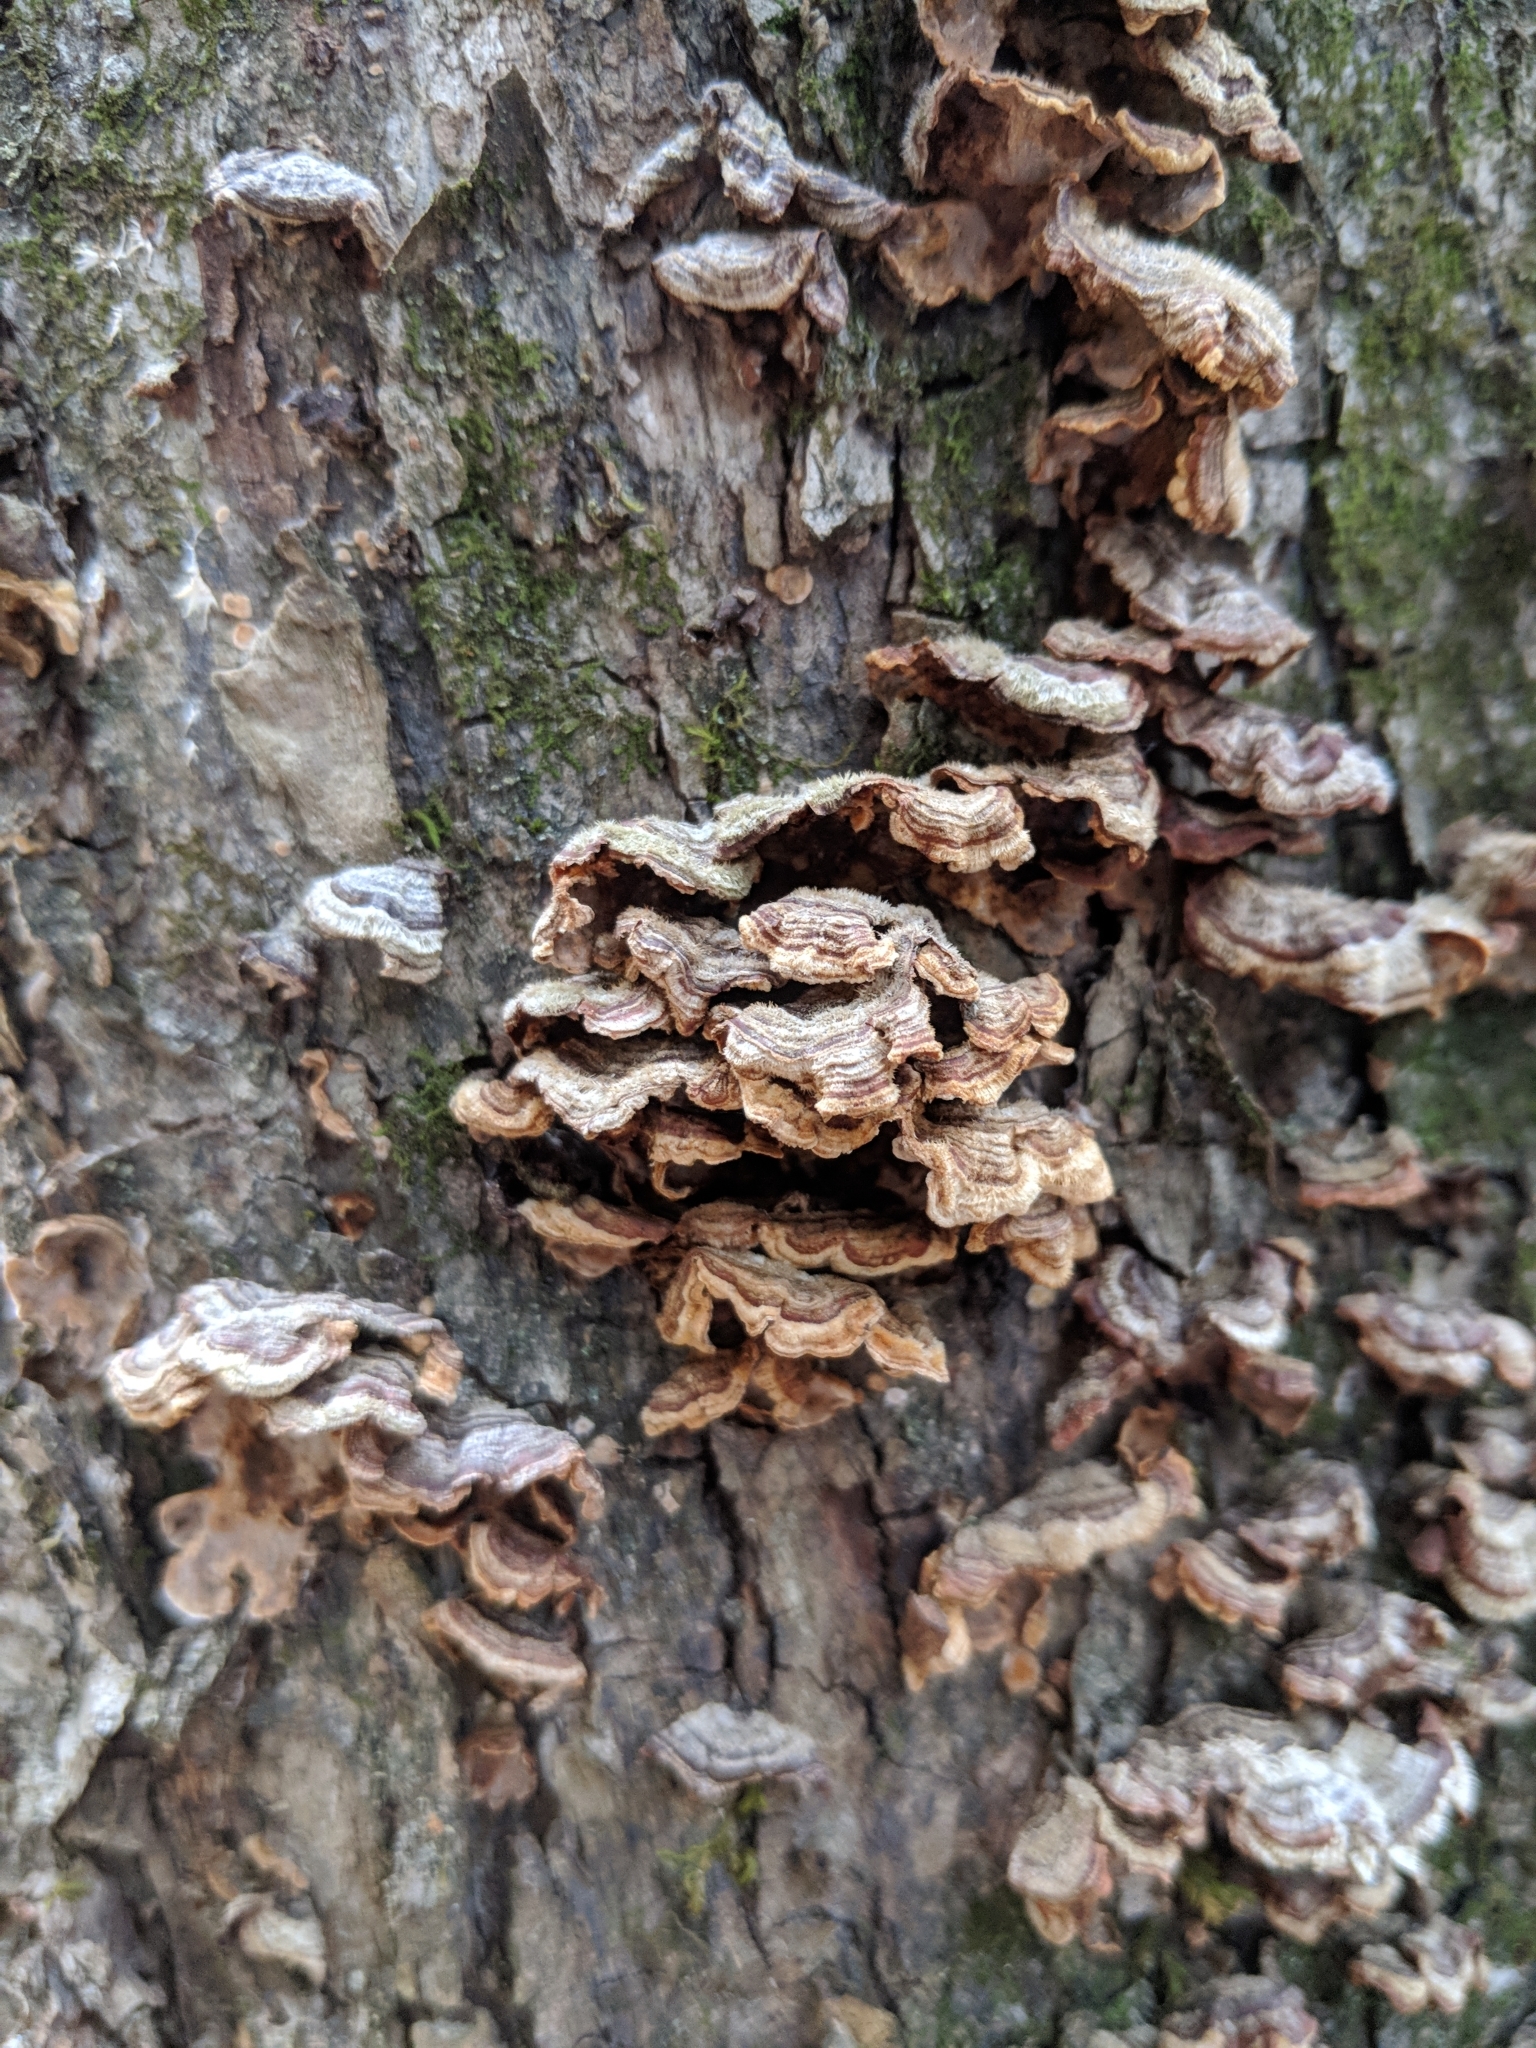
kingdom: Fungi
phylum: Basidiomycota
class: Agaricomycetes
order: Russulales
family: Stereaceae
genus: Stereum
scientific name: Stereum hirsutum
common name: Hairy curtain crust
